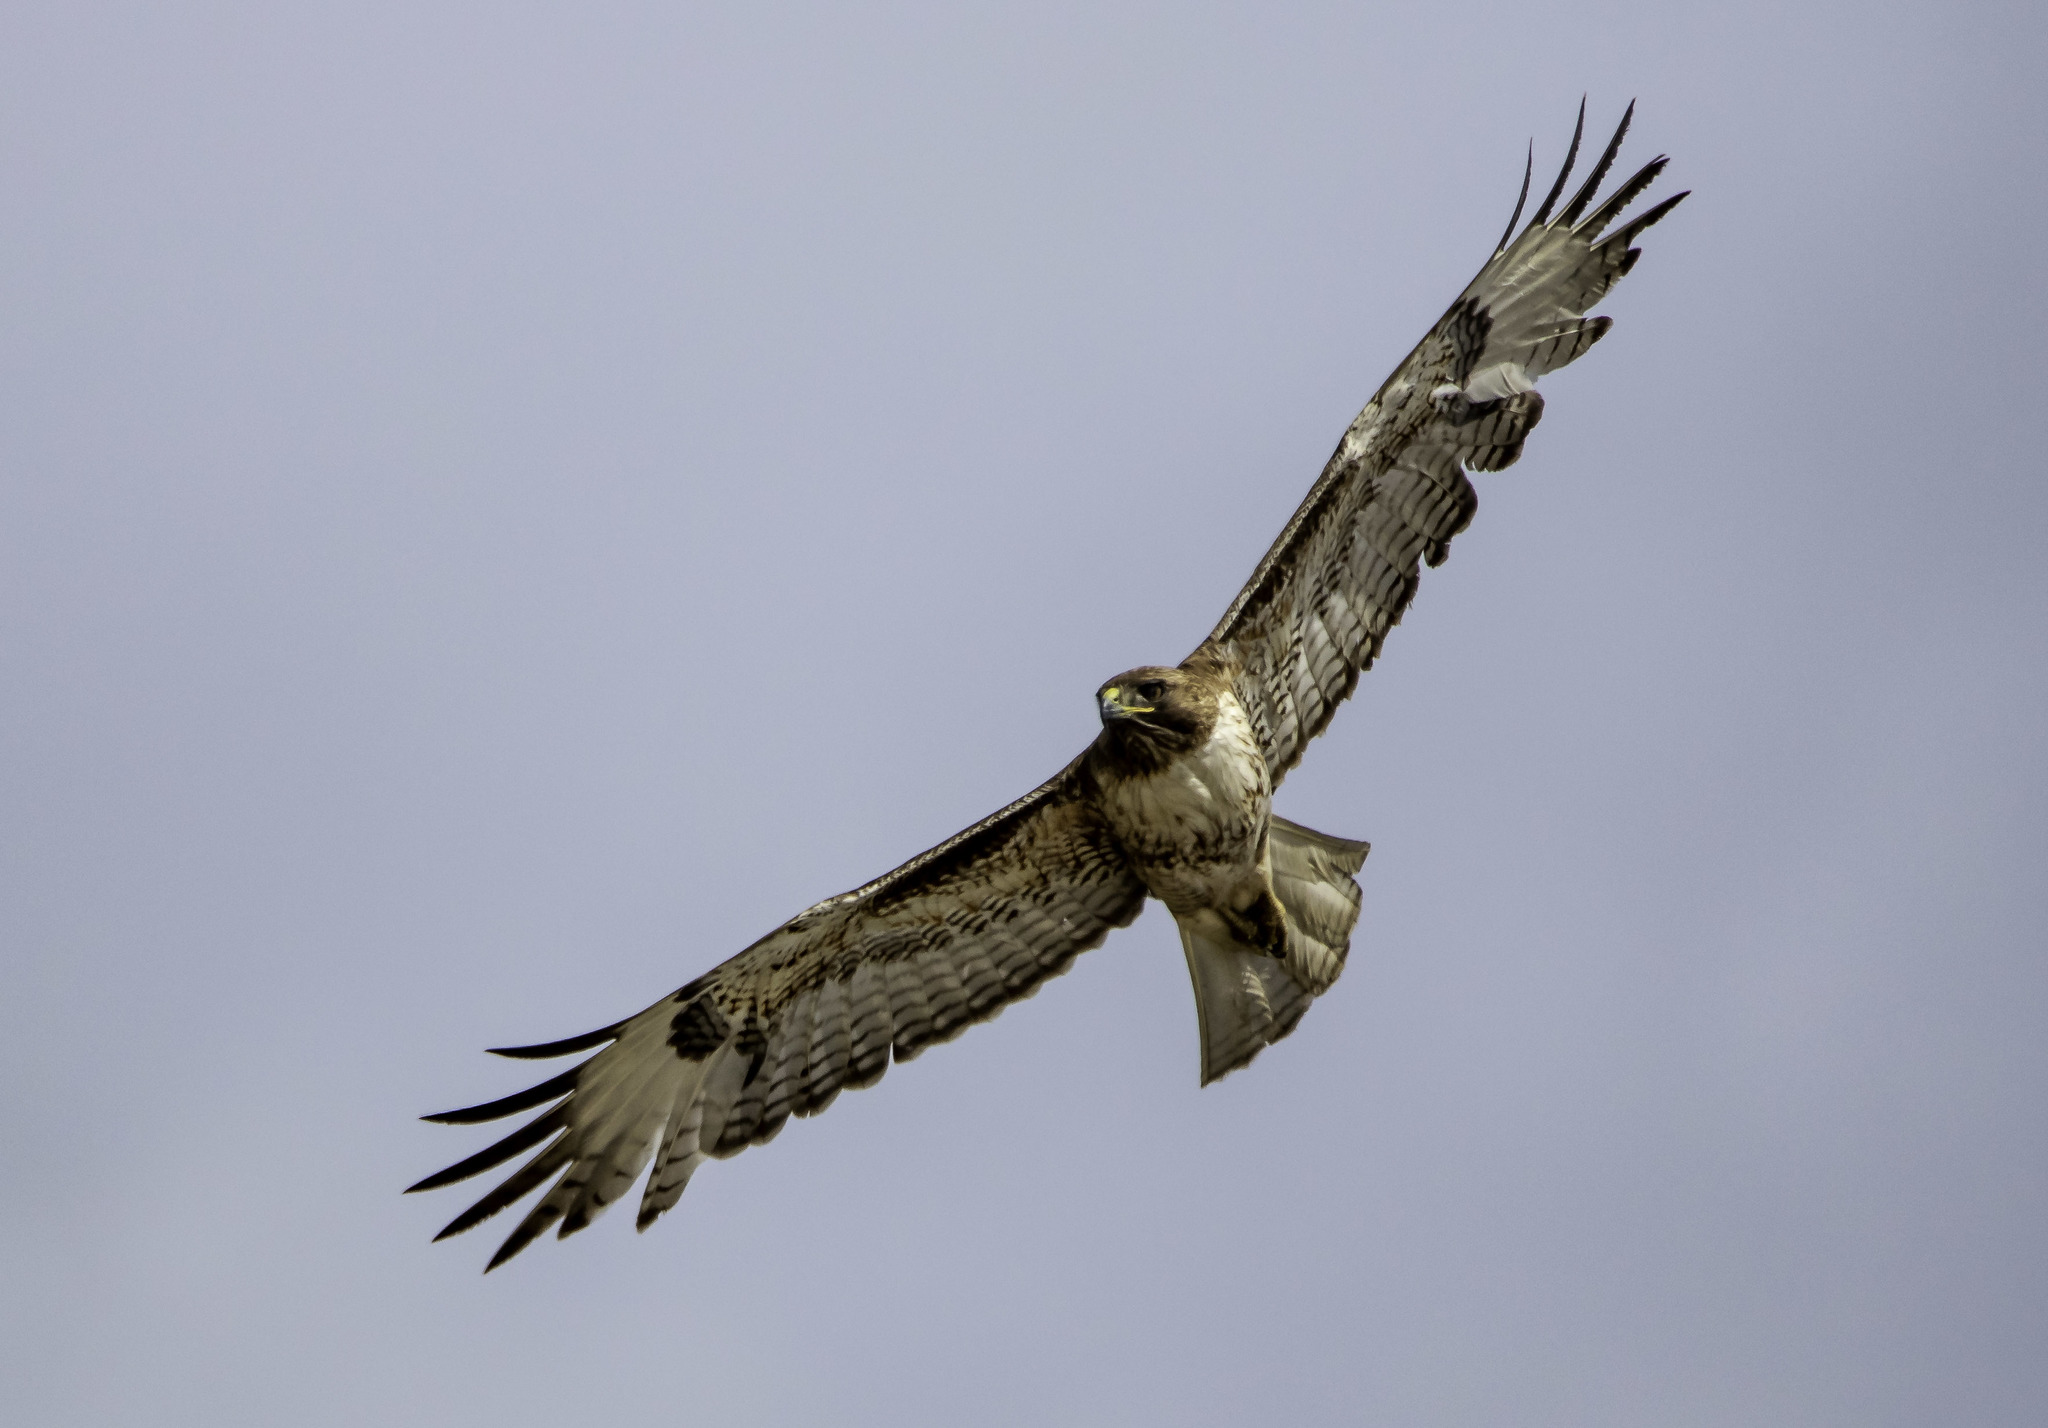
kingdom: Animalia
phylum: Chordata
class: Aves
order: Accipitriformes
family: Accipitridae
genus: Buteo
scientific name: Buteo jamaicensis
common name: Red-tailed hawk
